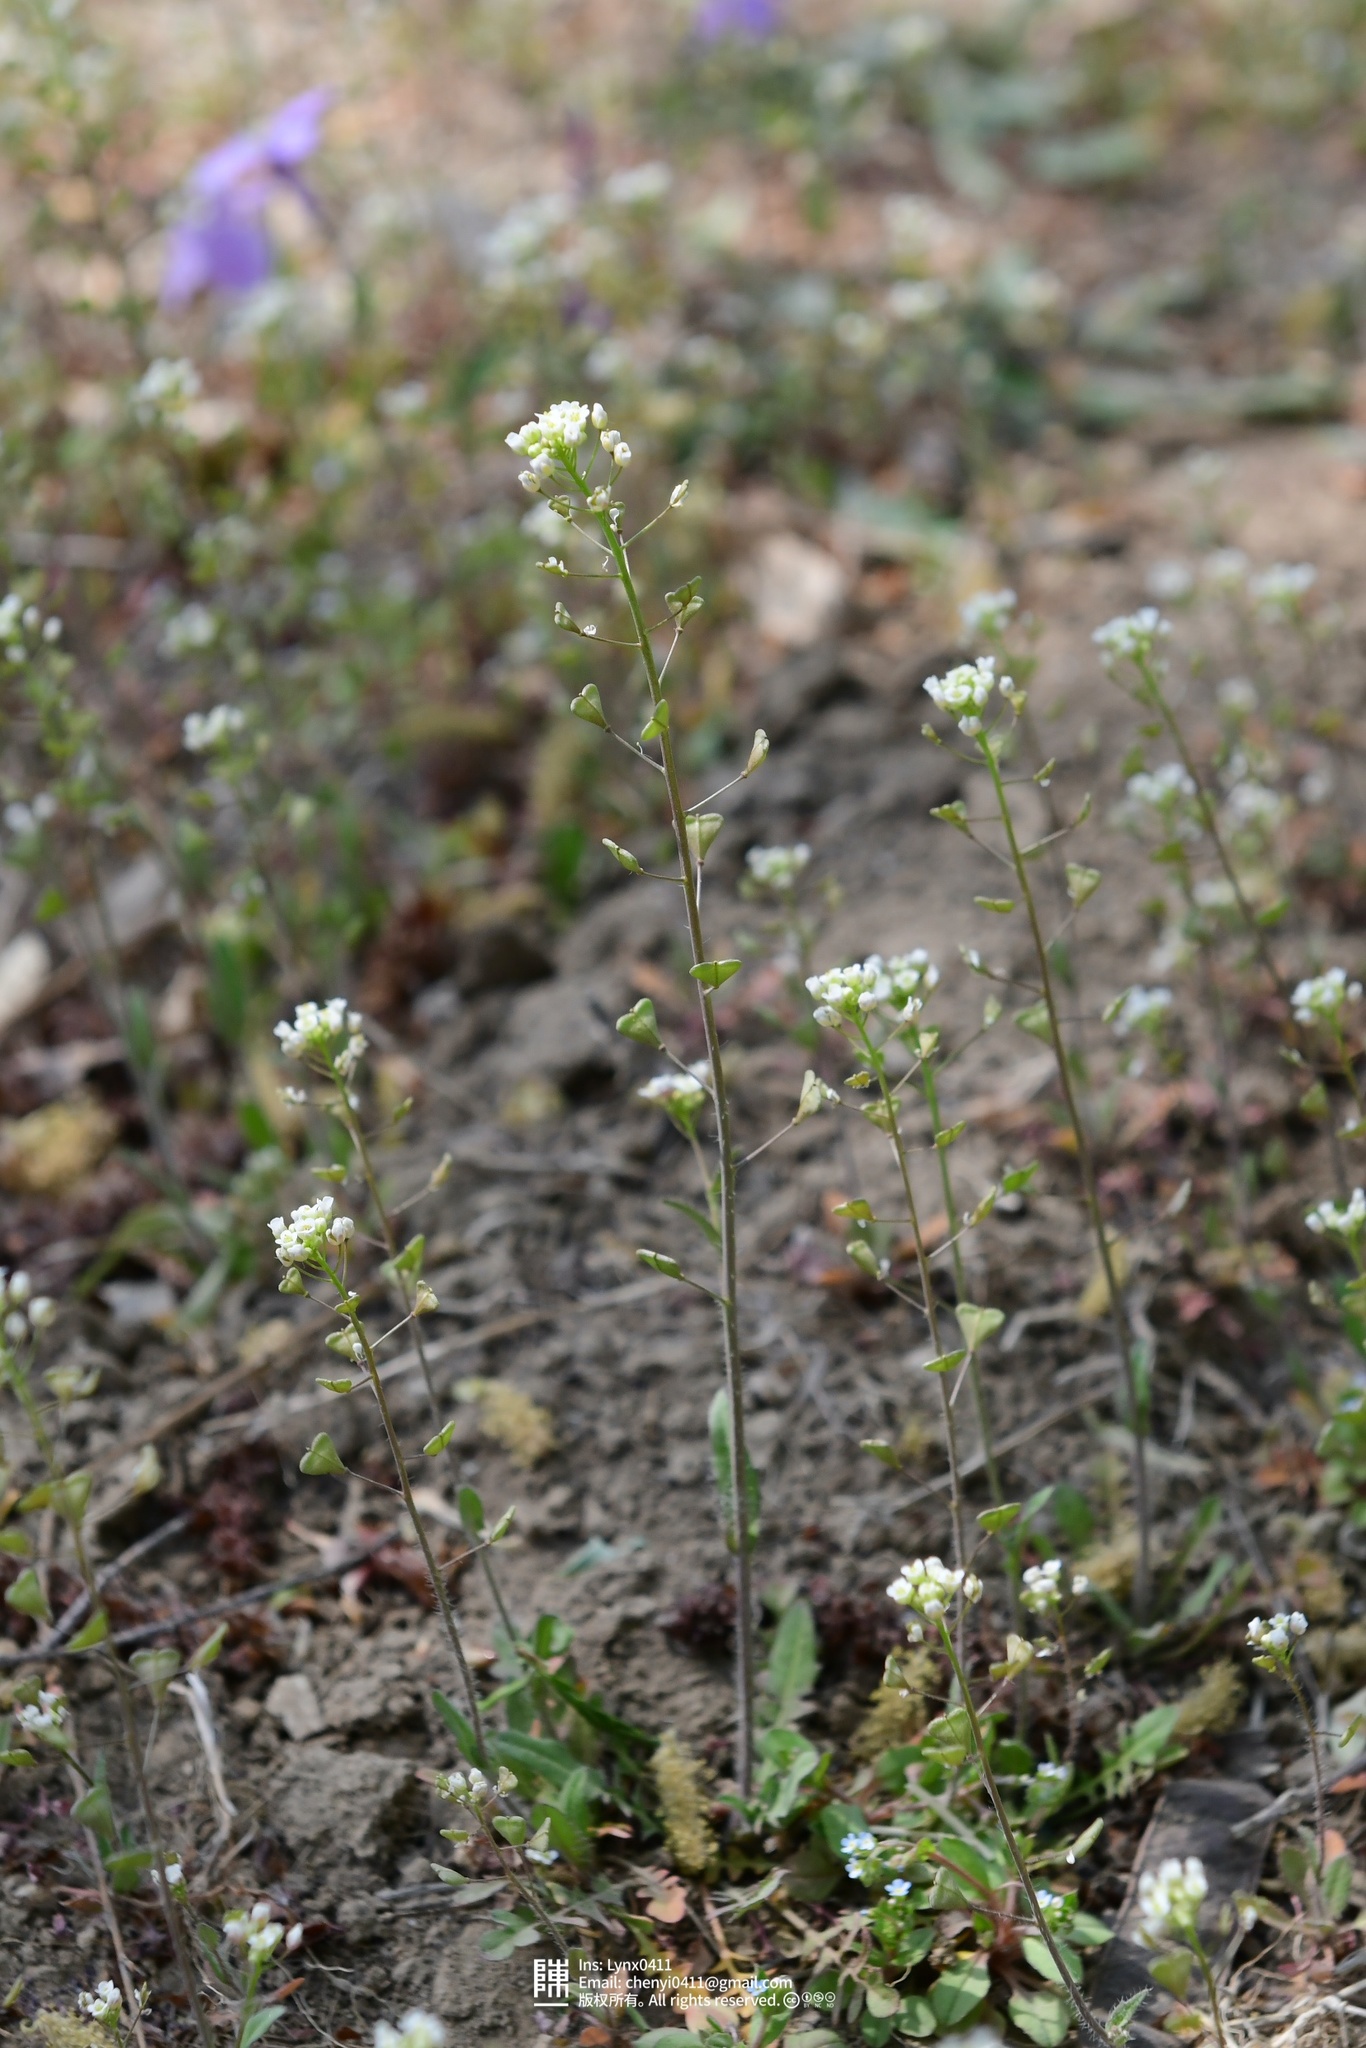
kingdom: Plantae
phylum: Tracheophyta
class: Magnoliopsida
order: Brassicales
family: Brassicaceae
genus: Capsella
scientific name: Capsella bursa-pastoris
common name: Shepherd's purse
